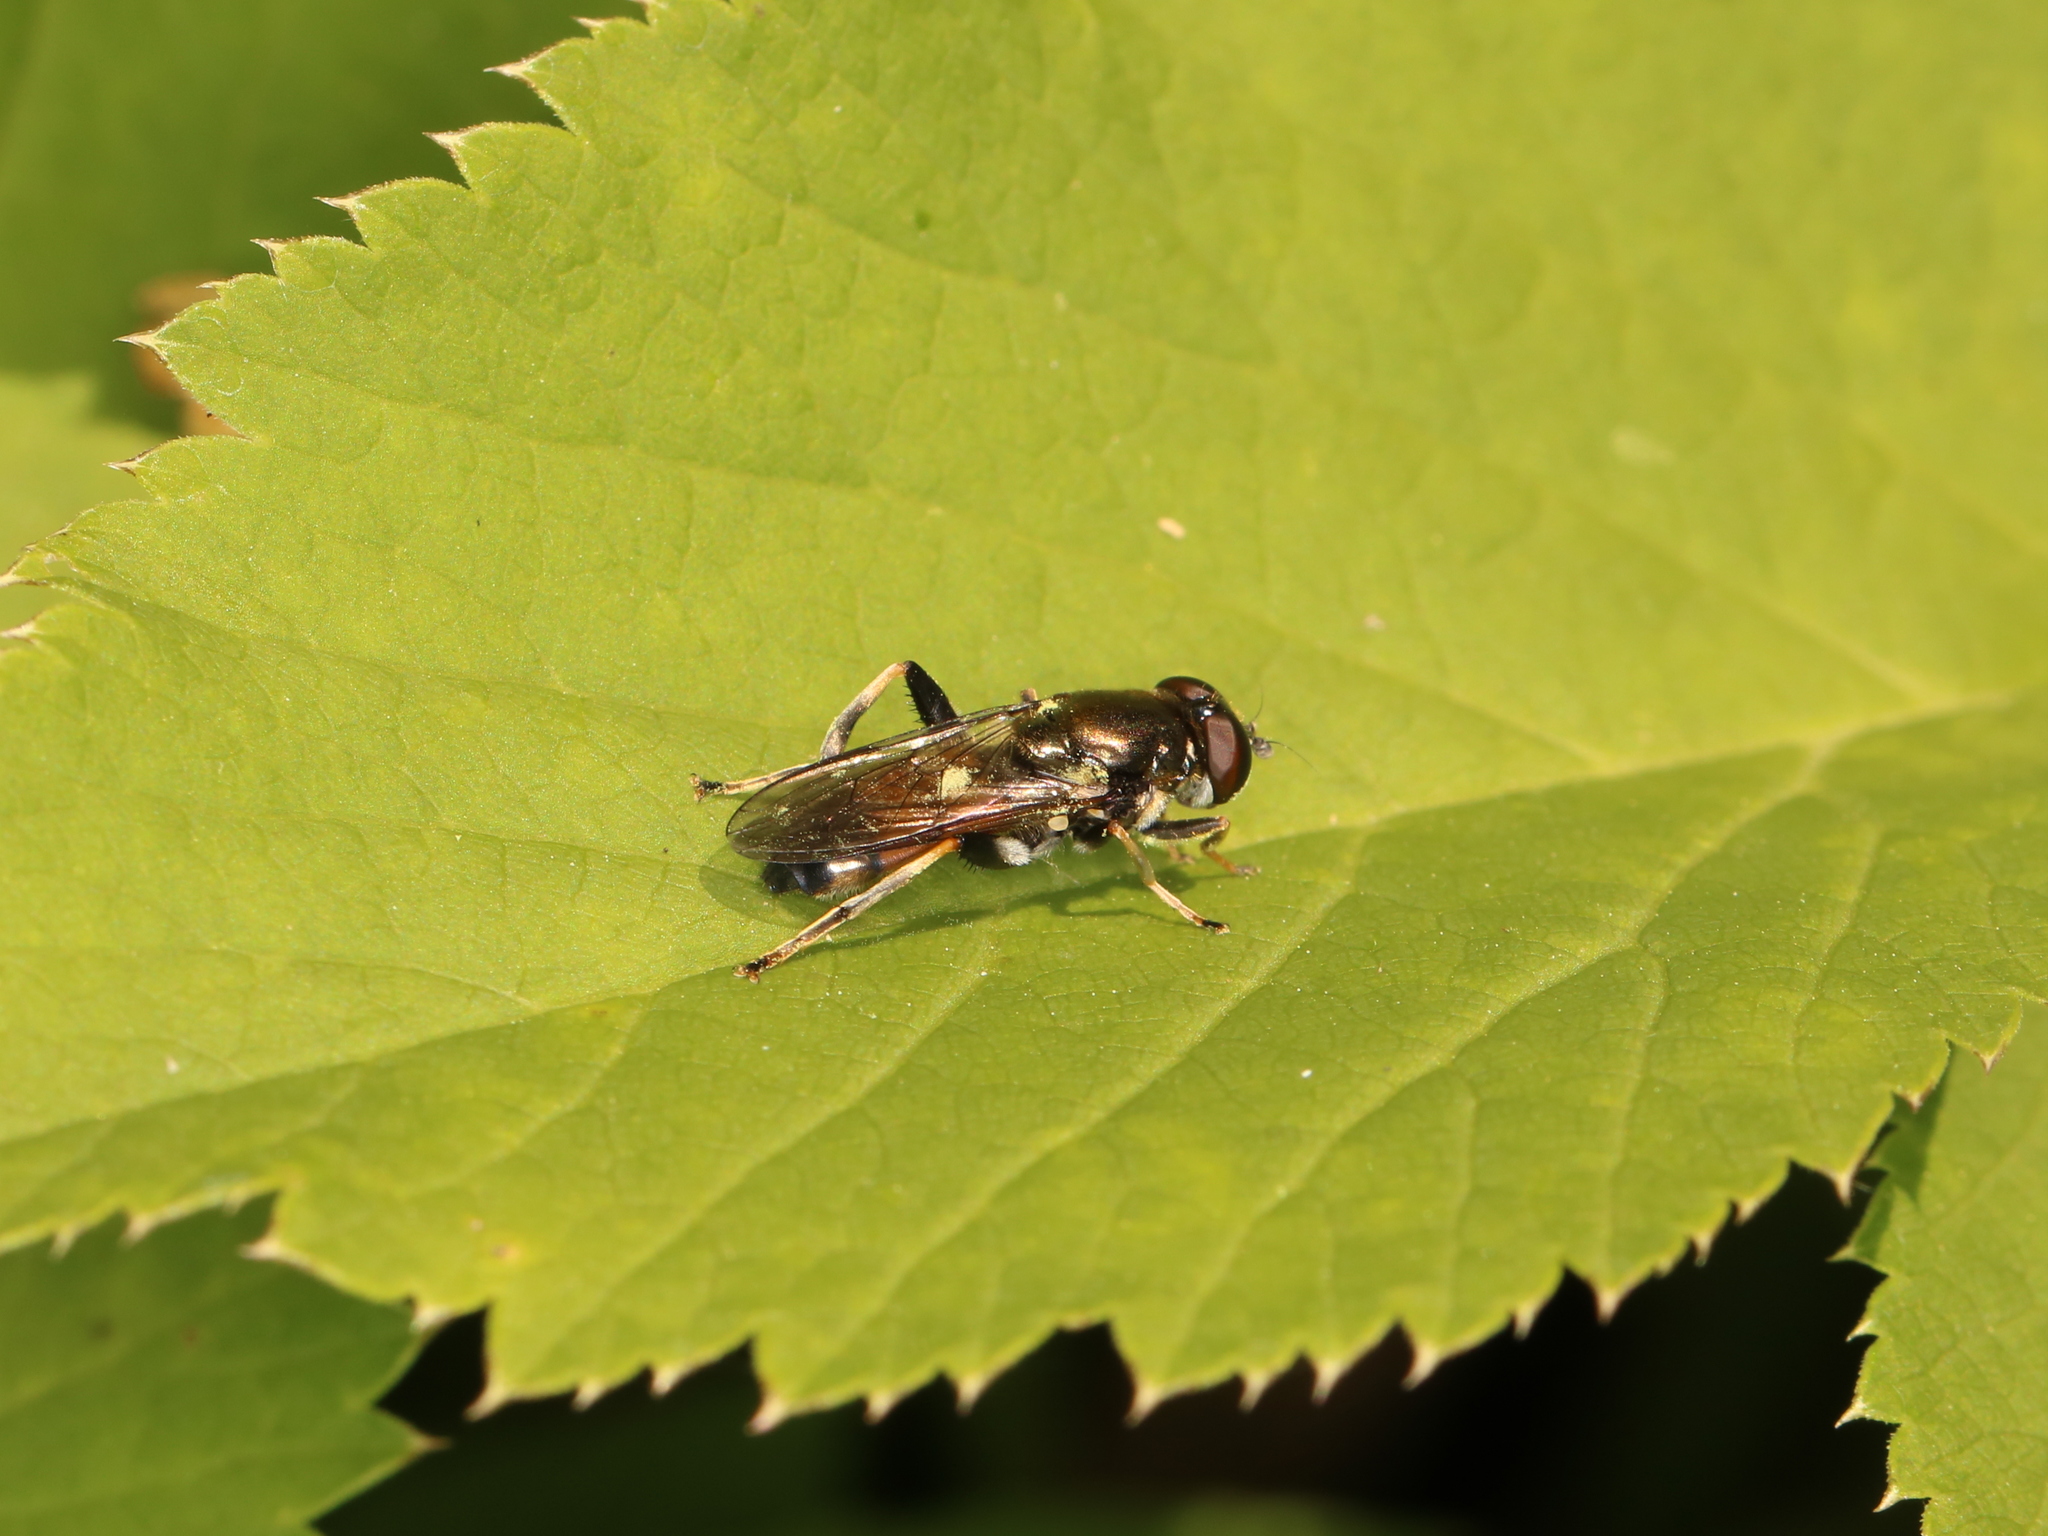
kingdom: Animalia
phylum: Arthropoda
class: Insecta
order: Diptera
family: Syrphidae
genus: Xylota
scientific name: Xylota segnis
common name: Brown-toed forest fly
